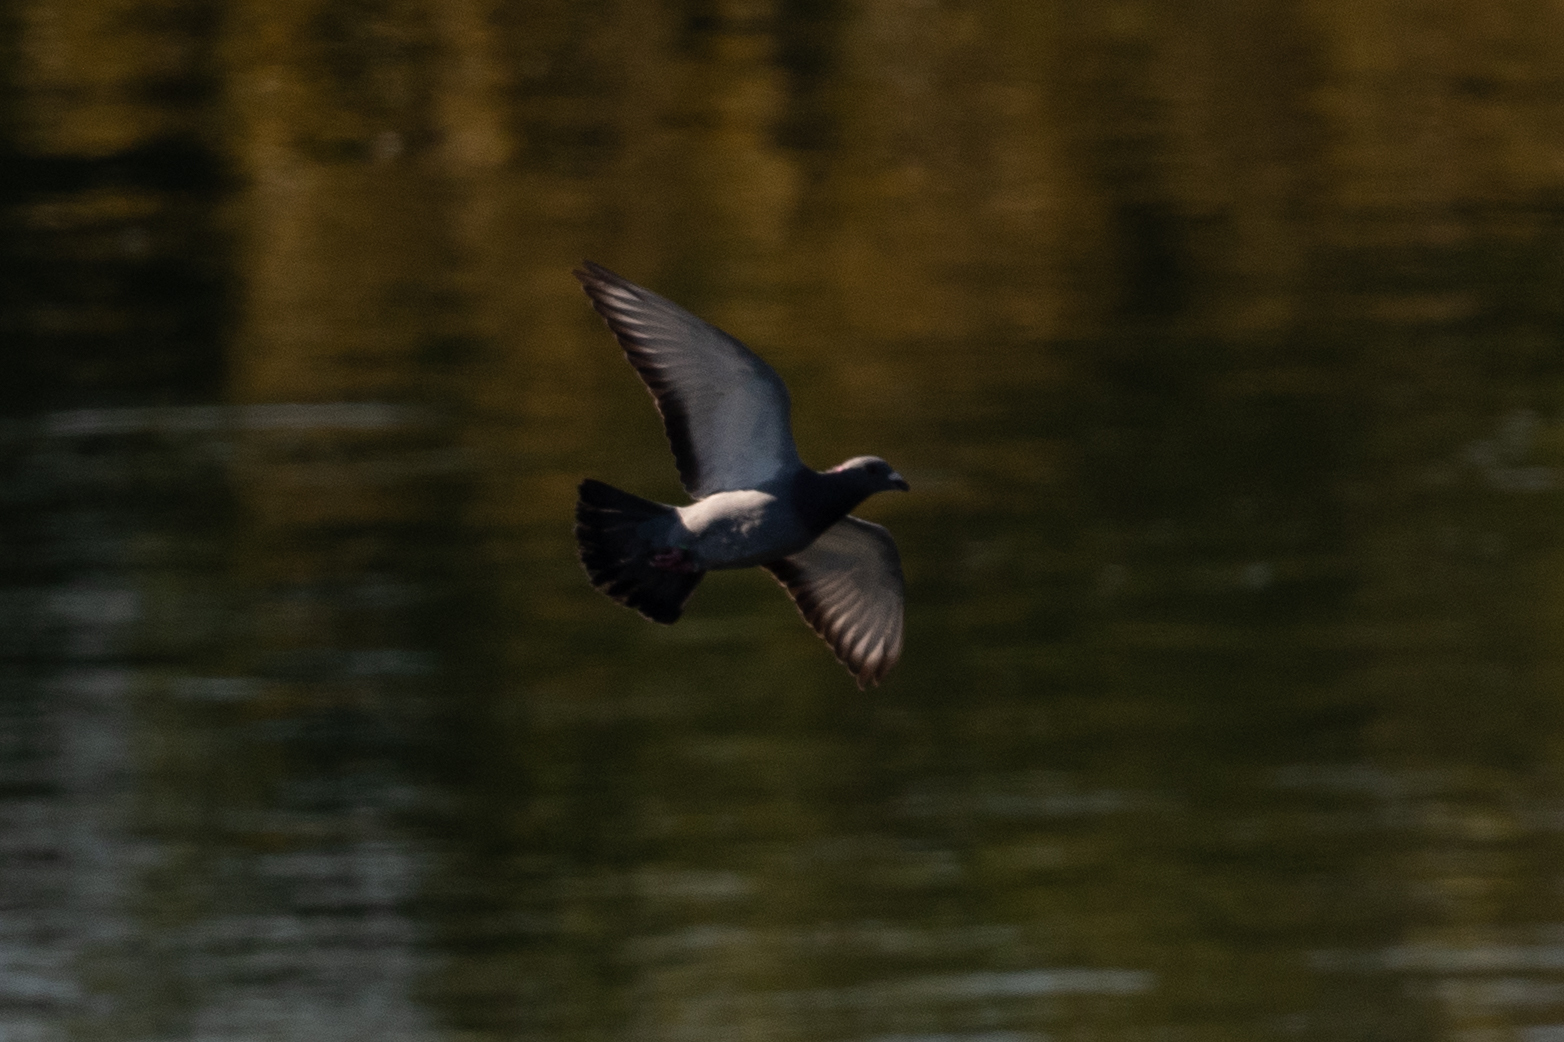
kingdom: Animalia
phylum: Chordata
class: Aves
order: Columbiformes
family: Columbidae
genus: Columba
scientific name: Columba livia
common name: Rock pigeon
